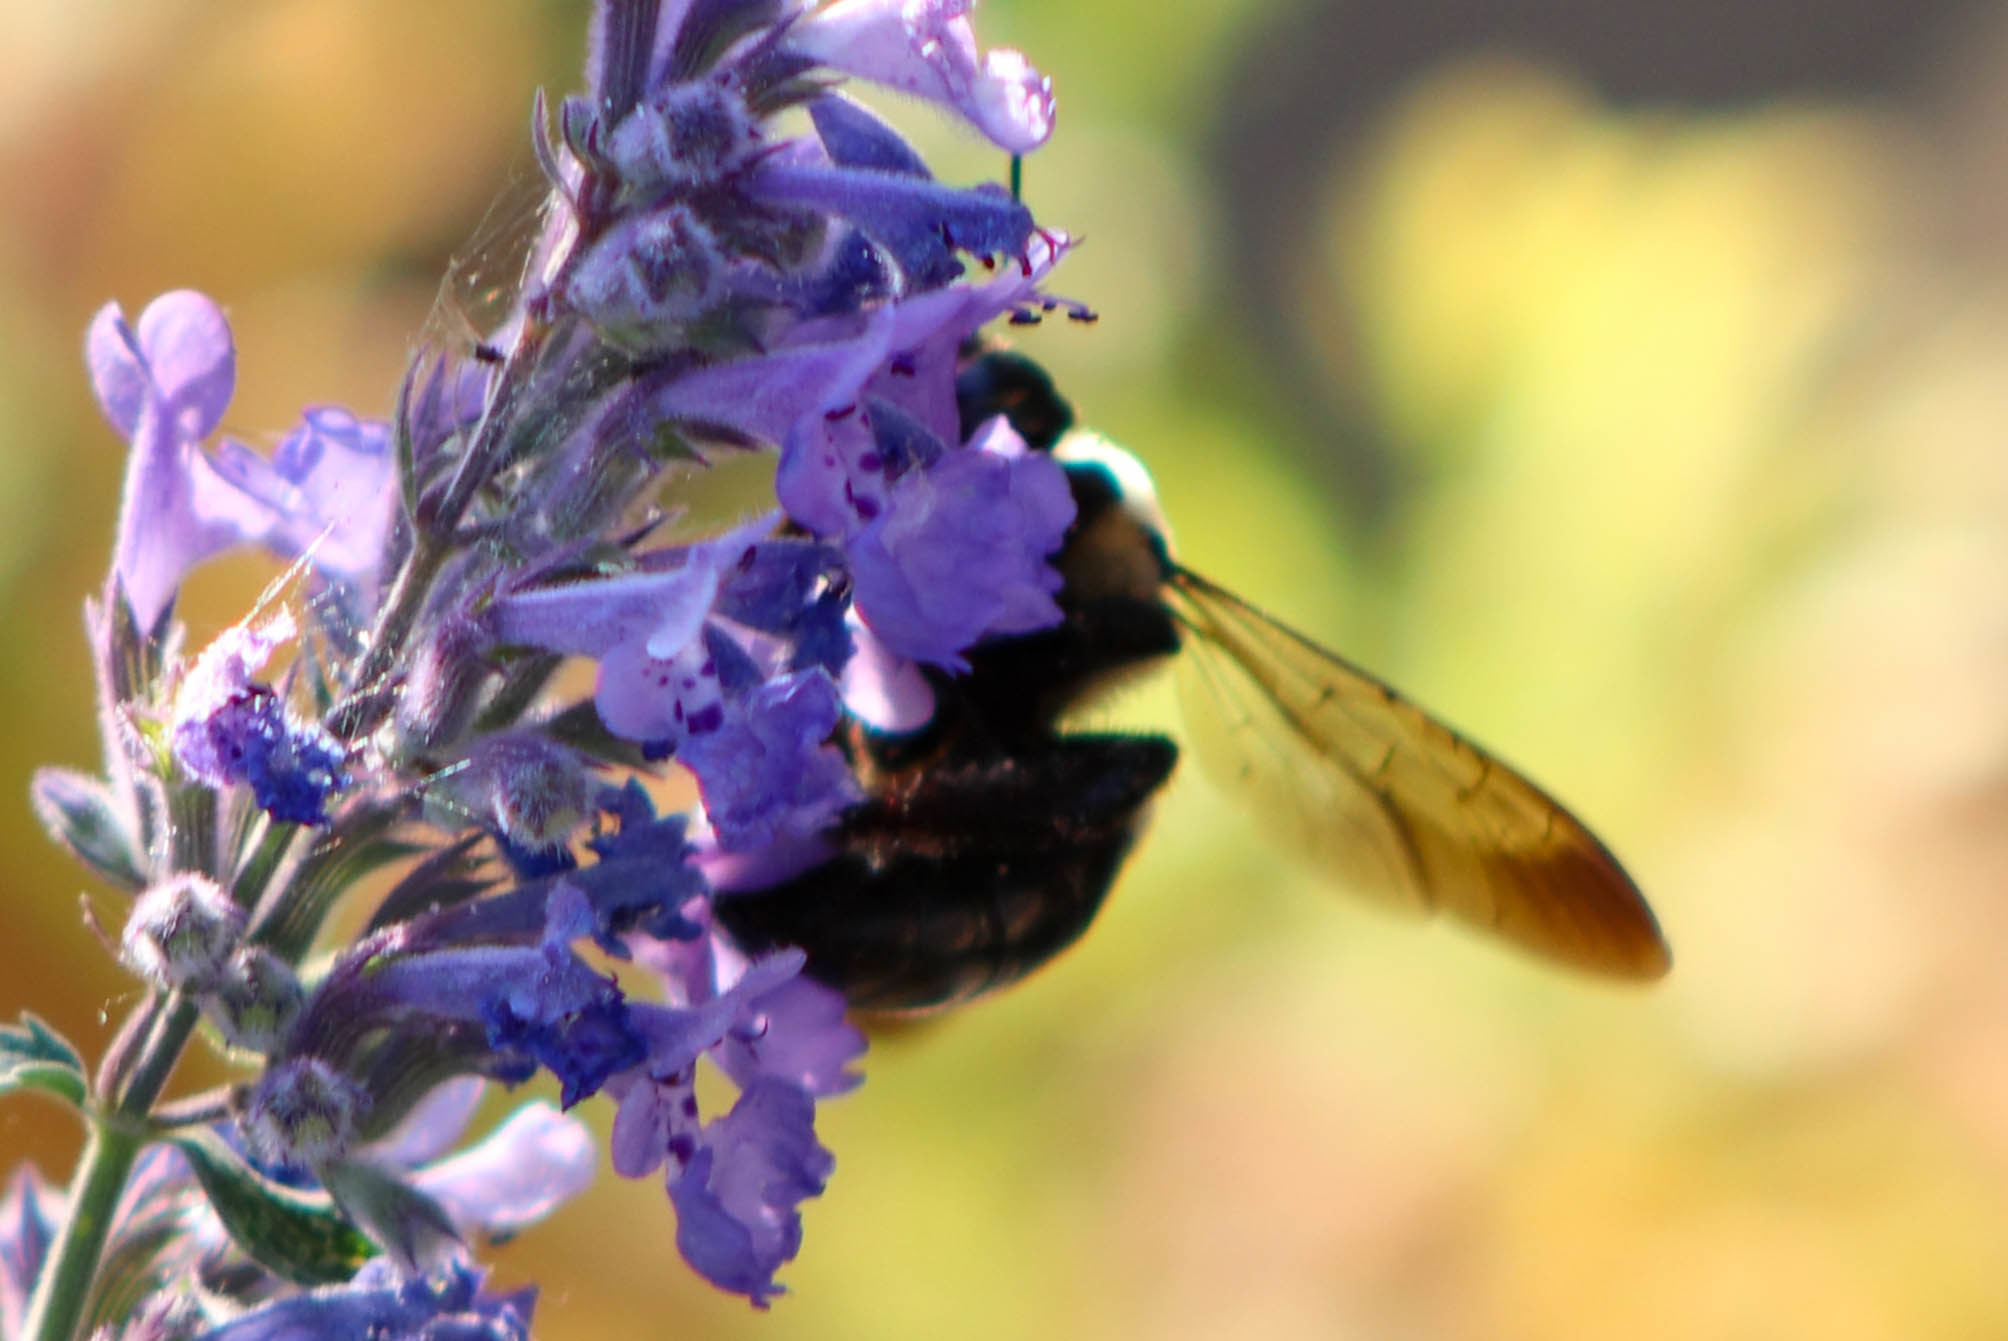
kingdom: Animalia
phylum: Arthropoda
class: Insecta
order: Hymenoptera
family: Apidae
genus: Xylocopa
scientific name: Xylocopa virginica
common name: Carpenter bee
